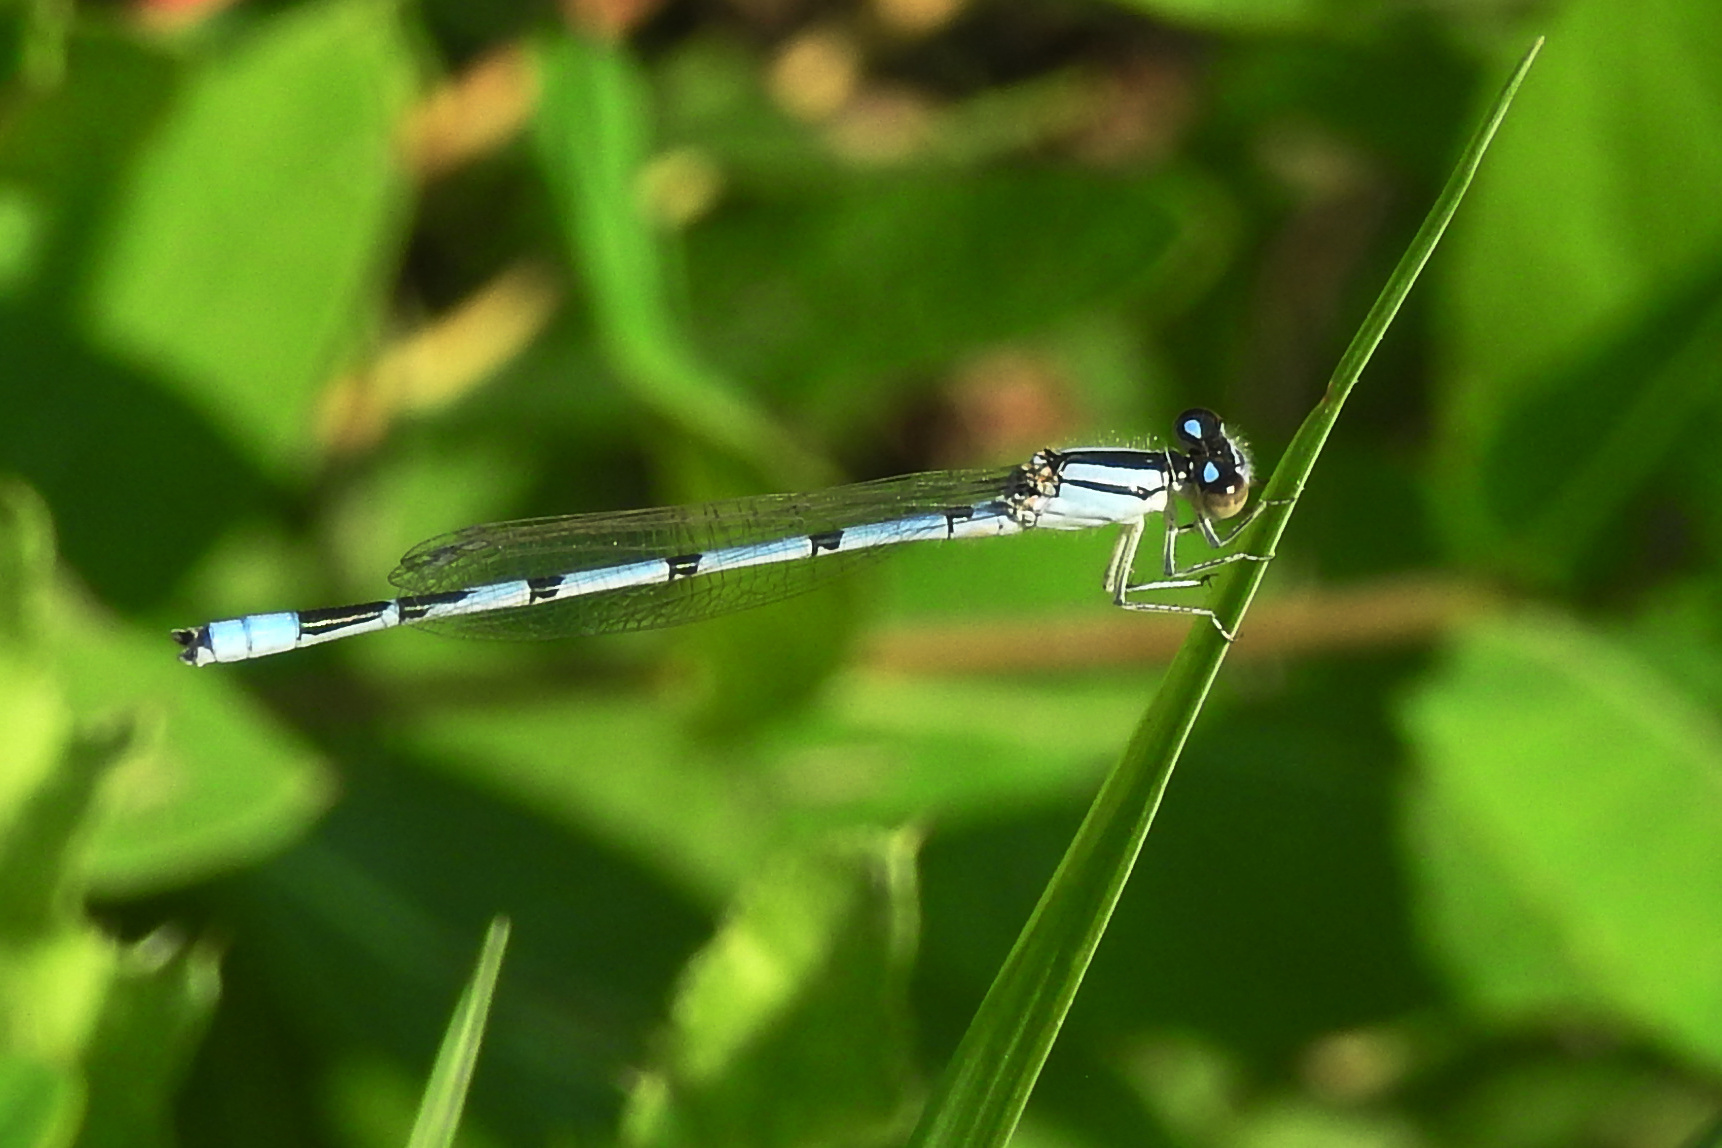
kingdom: Animalia
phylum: Arthropoda
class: Insecta
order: Odonata
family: Coenagrionidae
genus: Enallagma
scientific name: Enallagma civile
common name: Damselfly
